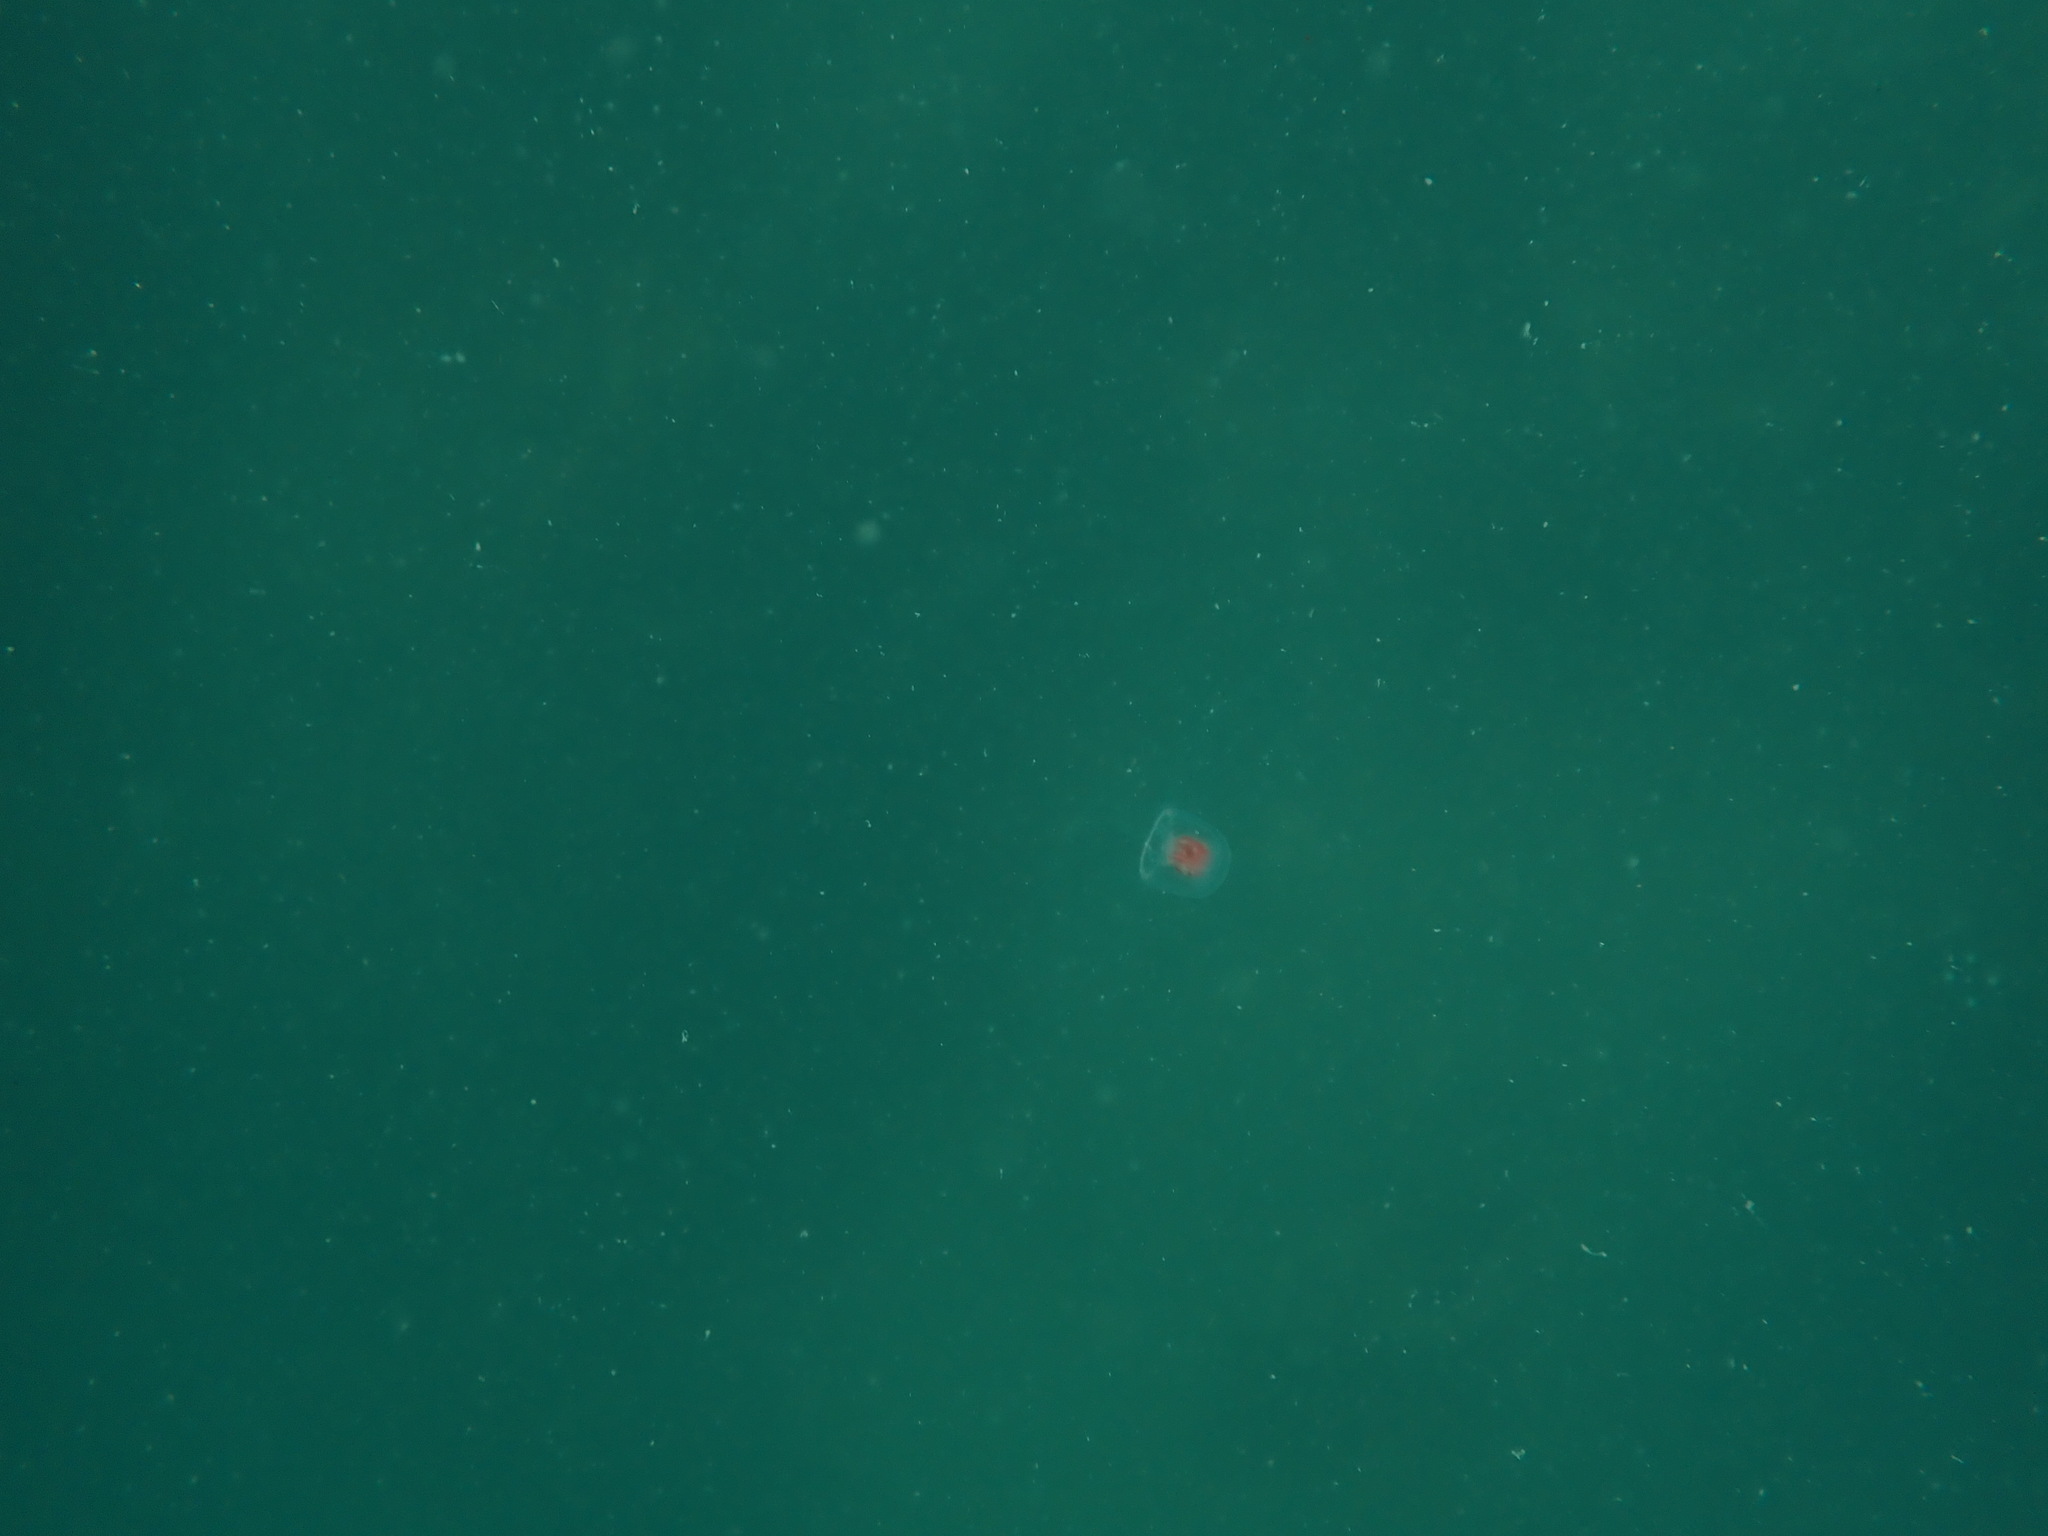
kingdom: Animalia
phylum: Cnidaria
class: Hydrozoa
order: Anthoathecata
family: Oceaniidae
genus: Turritopsis
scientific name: Turritopsis rubra
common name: Crimson jelly
